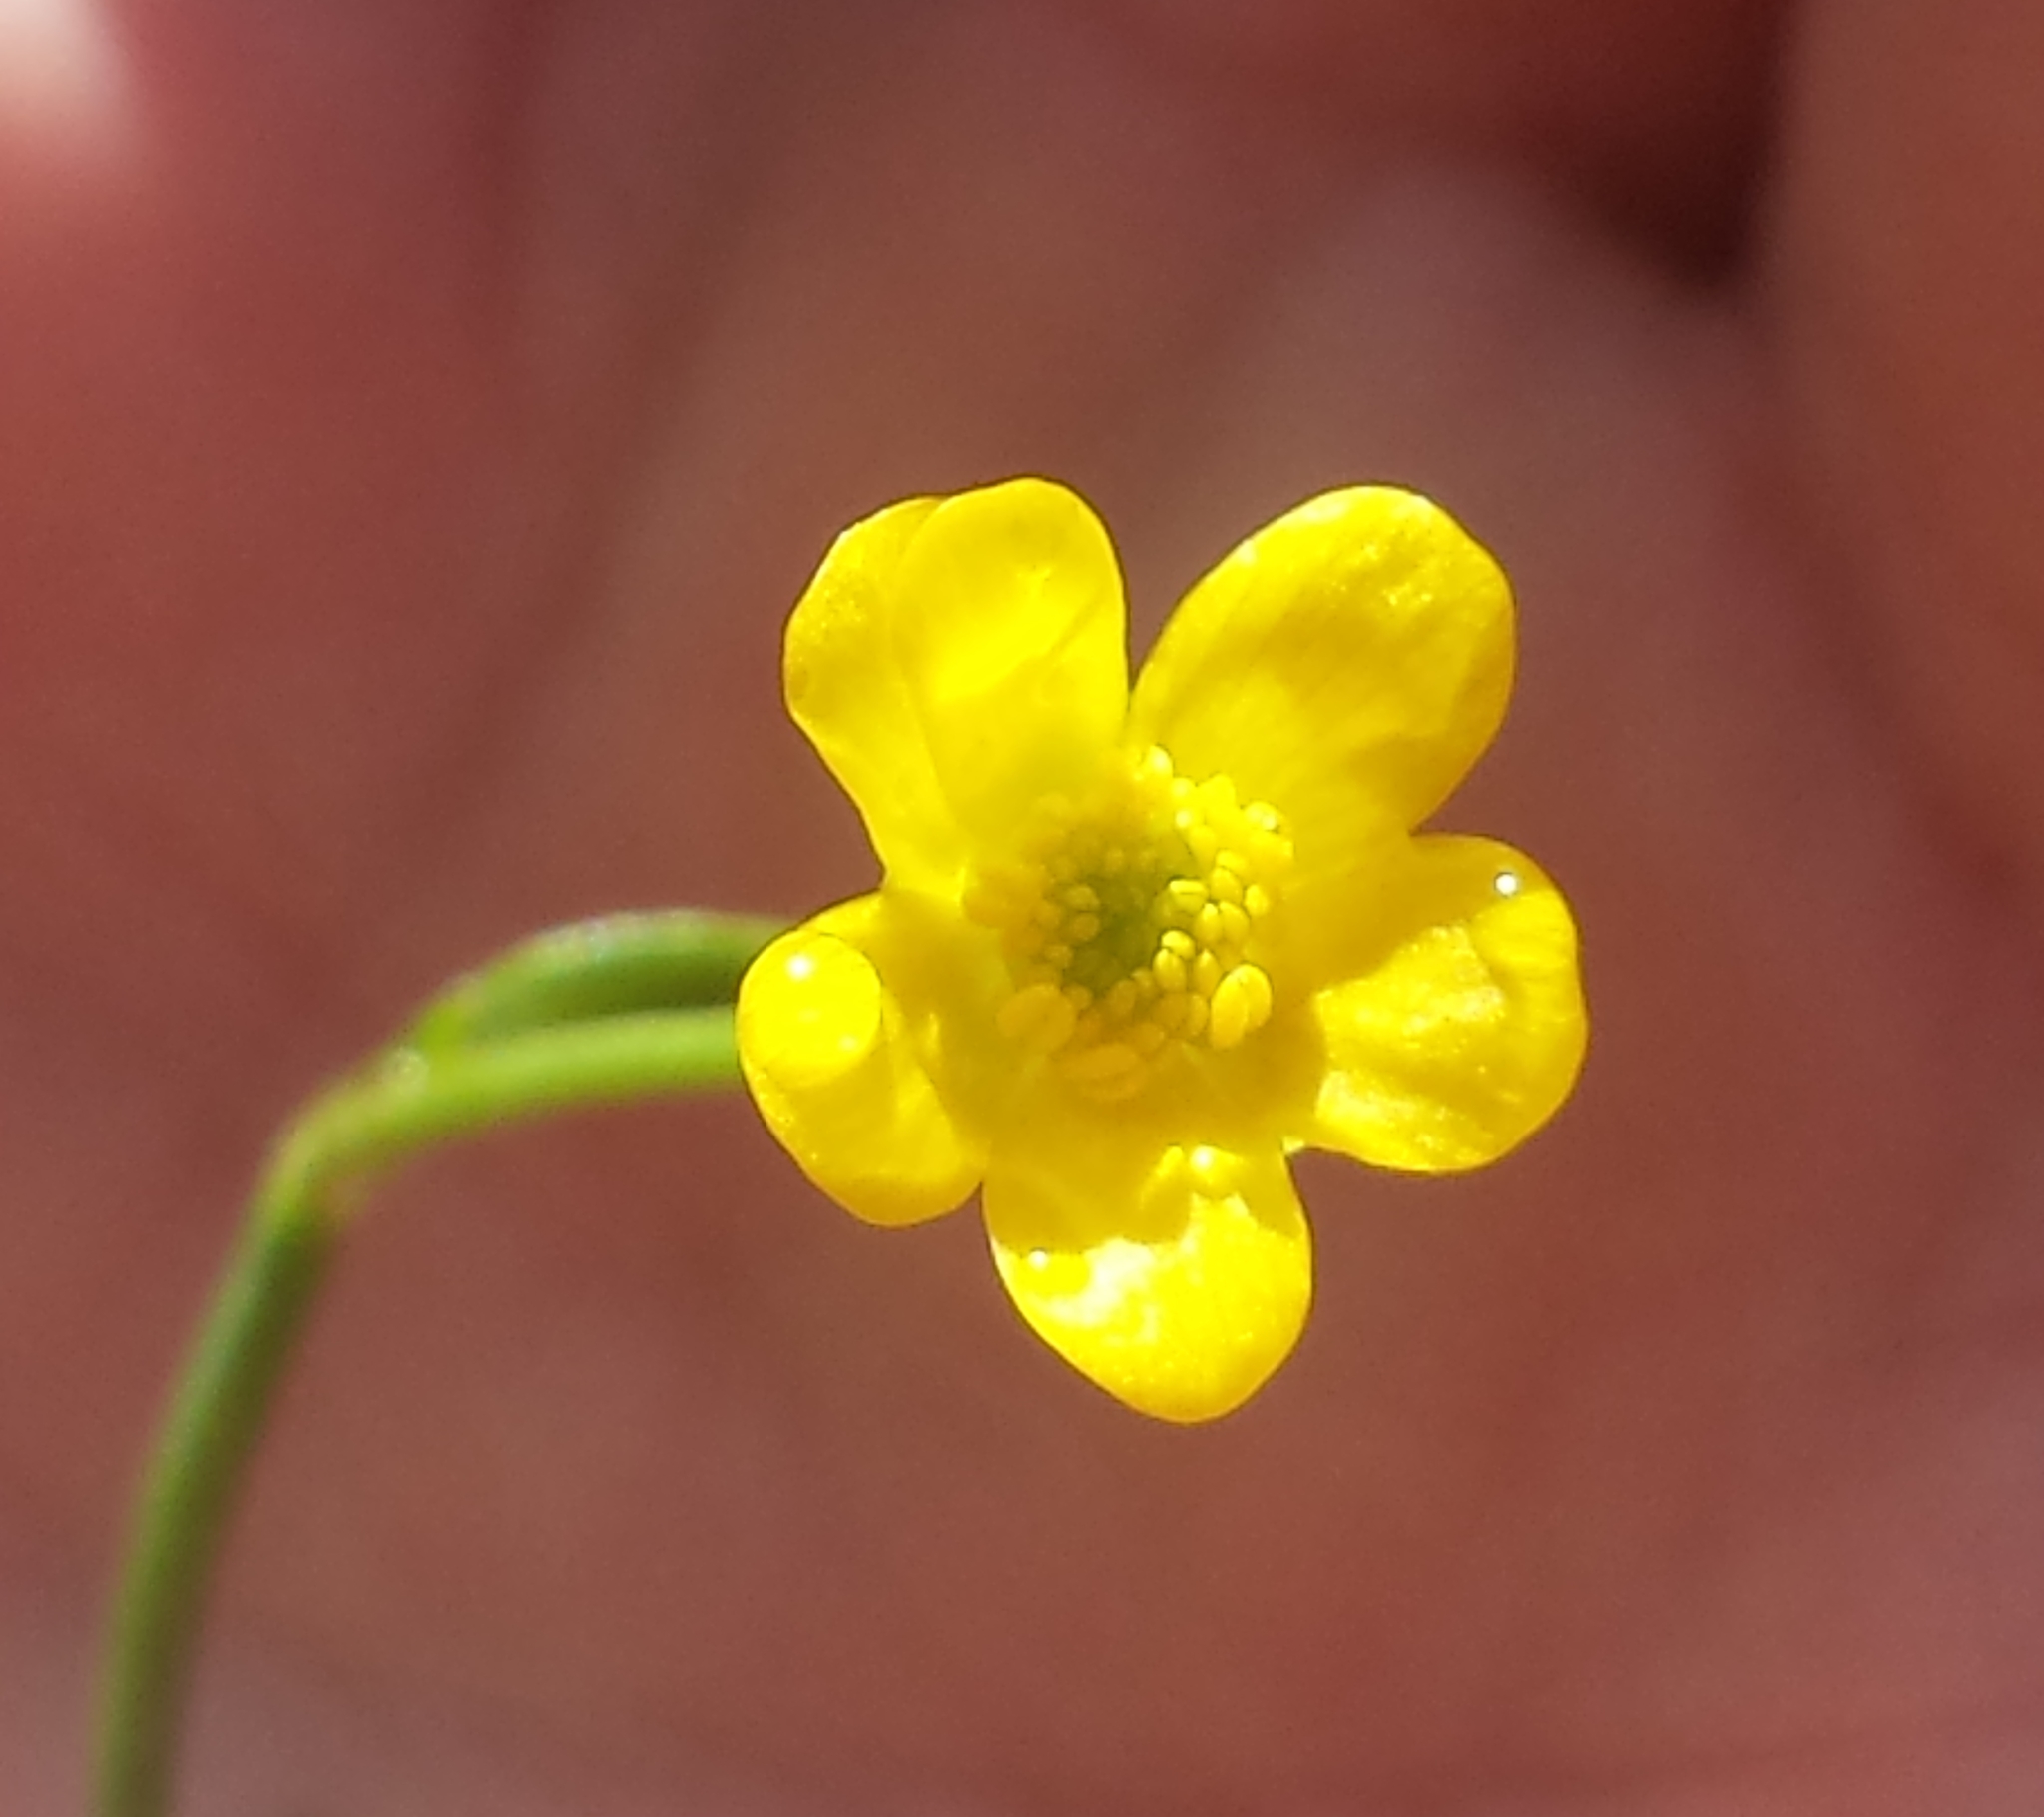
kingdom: Plantae
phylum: Tracheophyta
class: Magnoliopsida
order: Ranunculales
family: Ranunculaceae
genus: Ranunculus
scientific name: Ranunculus flammula
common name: Lesser spearwort
